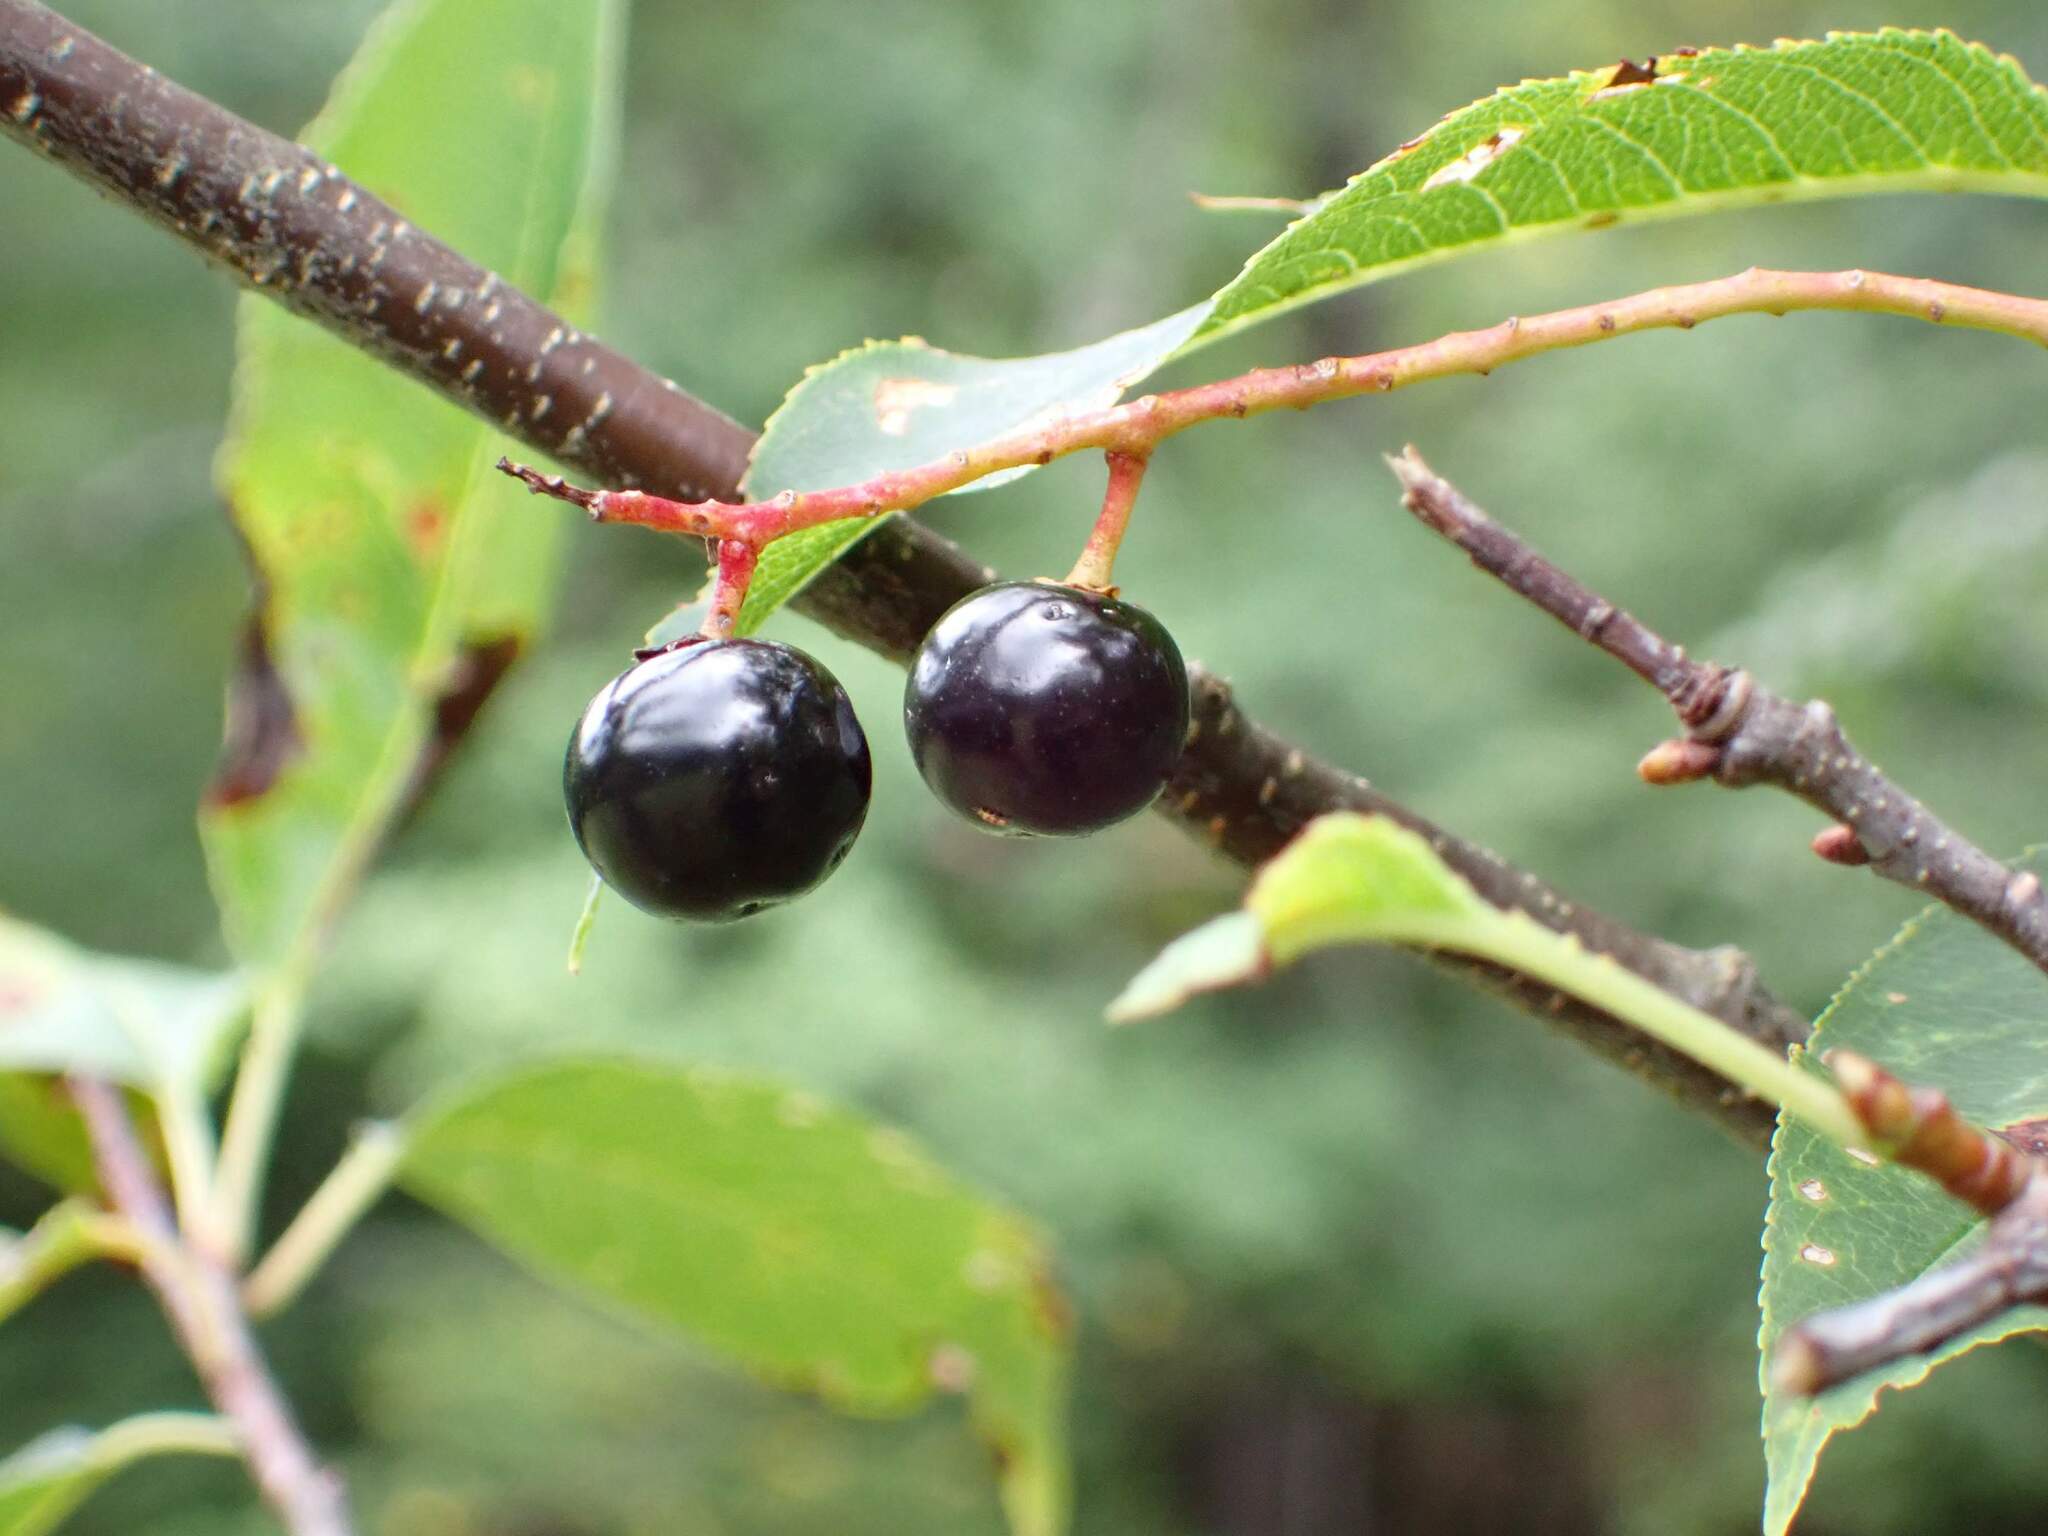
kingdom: Plantae
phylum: Tracheophyta
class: Magnoliopsida
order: Rosales
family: Rosaceae
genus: Prunus
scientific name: Prunus serotina
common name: Black cherry
